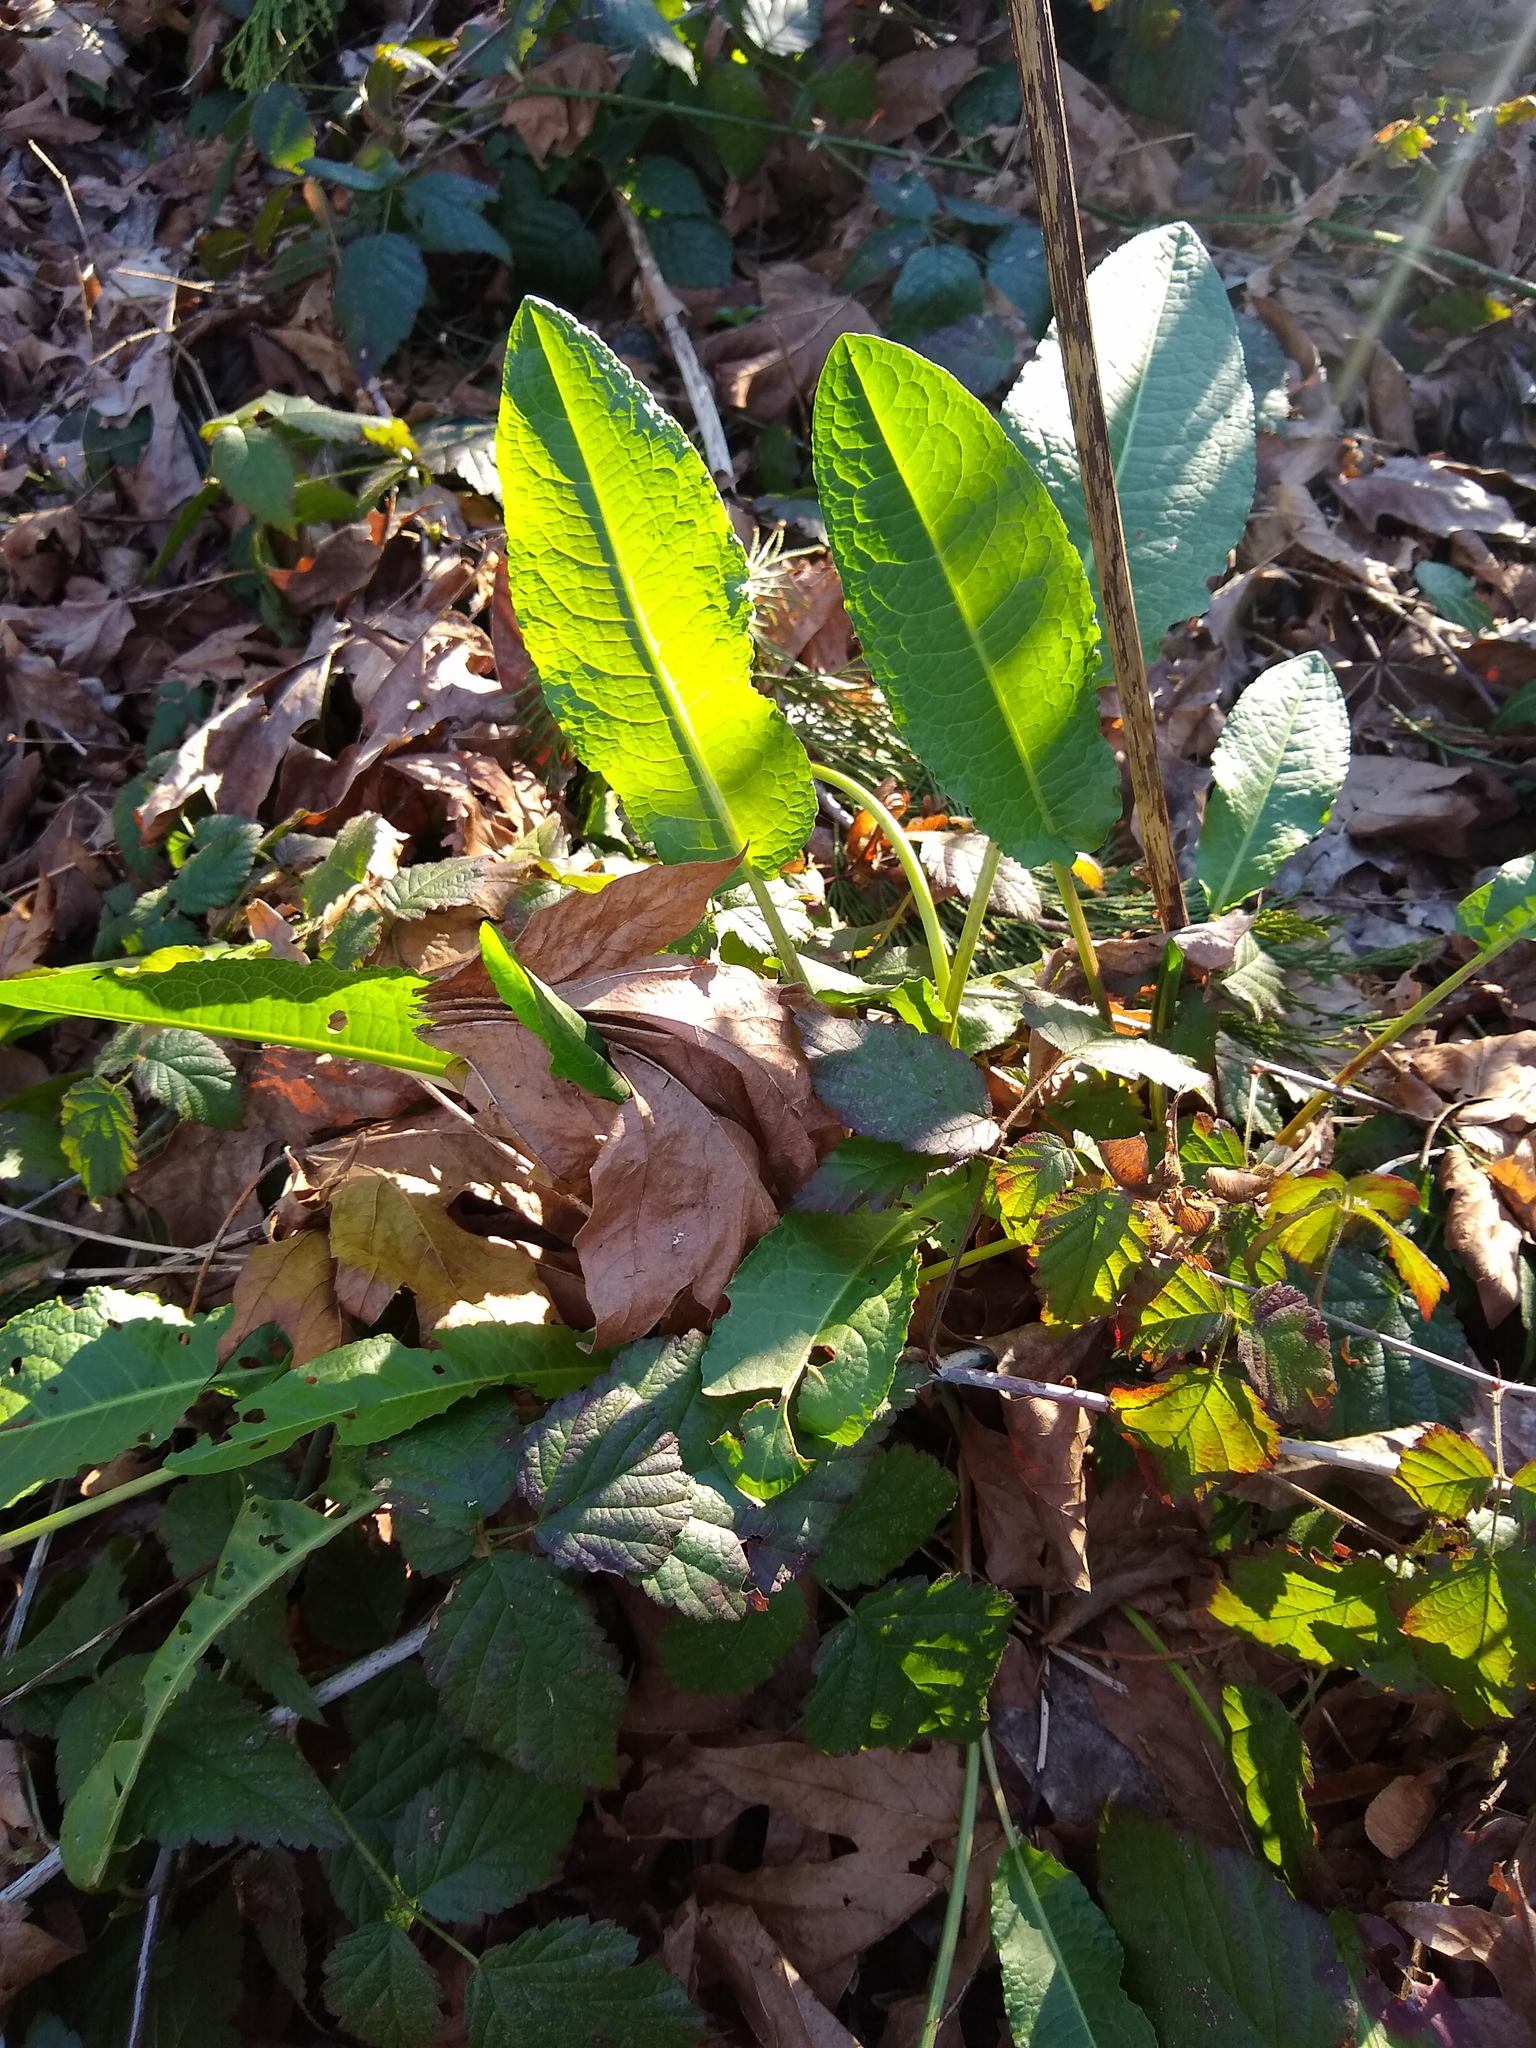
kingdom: Plantae
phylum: Tracheophyta
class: Magnoliopsida
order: Caryophyllales
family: Polygonaceae
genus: Rumex
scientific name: Rumex obtusifolius
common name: Bitter dock
